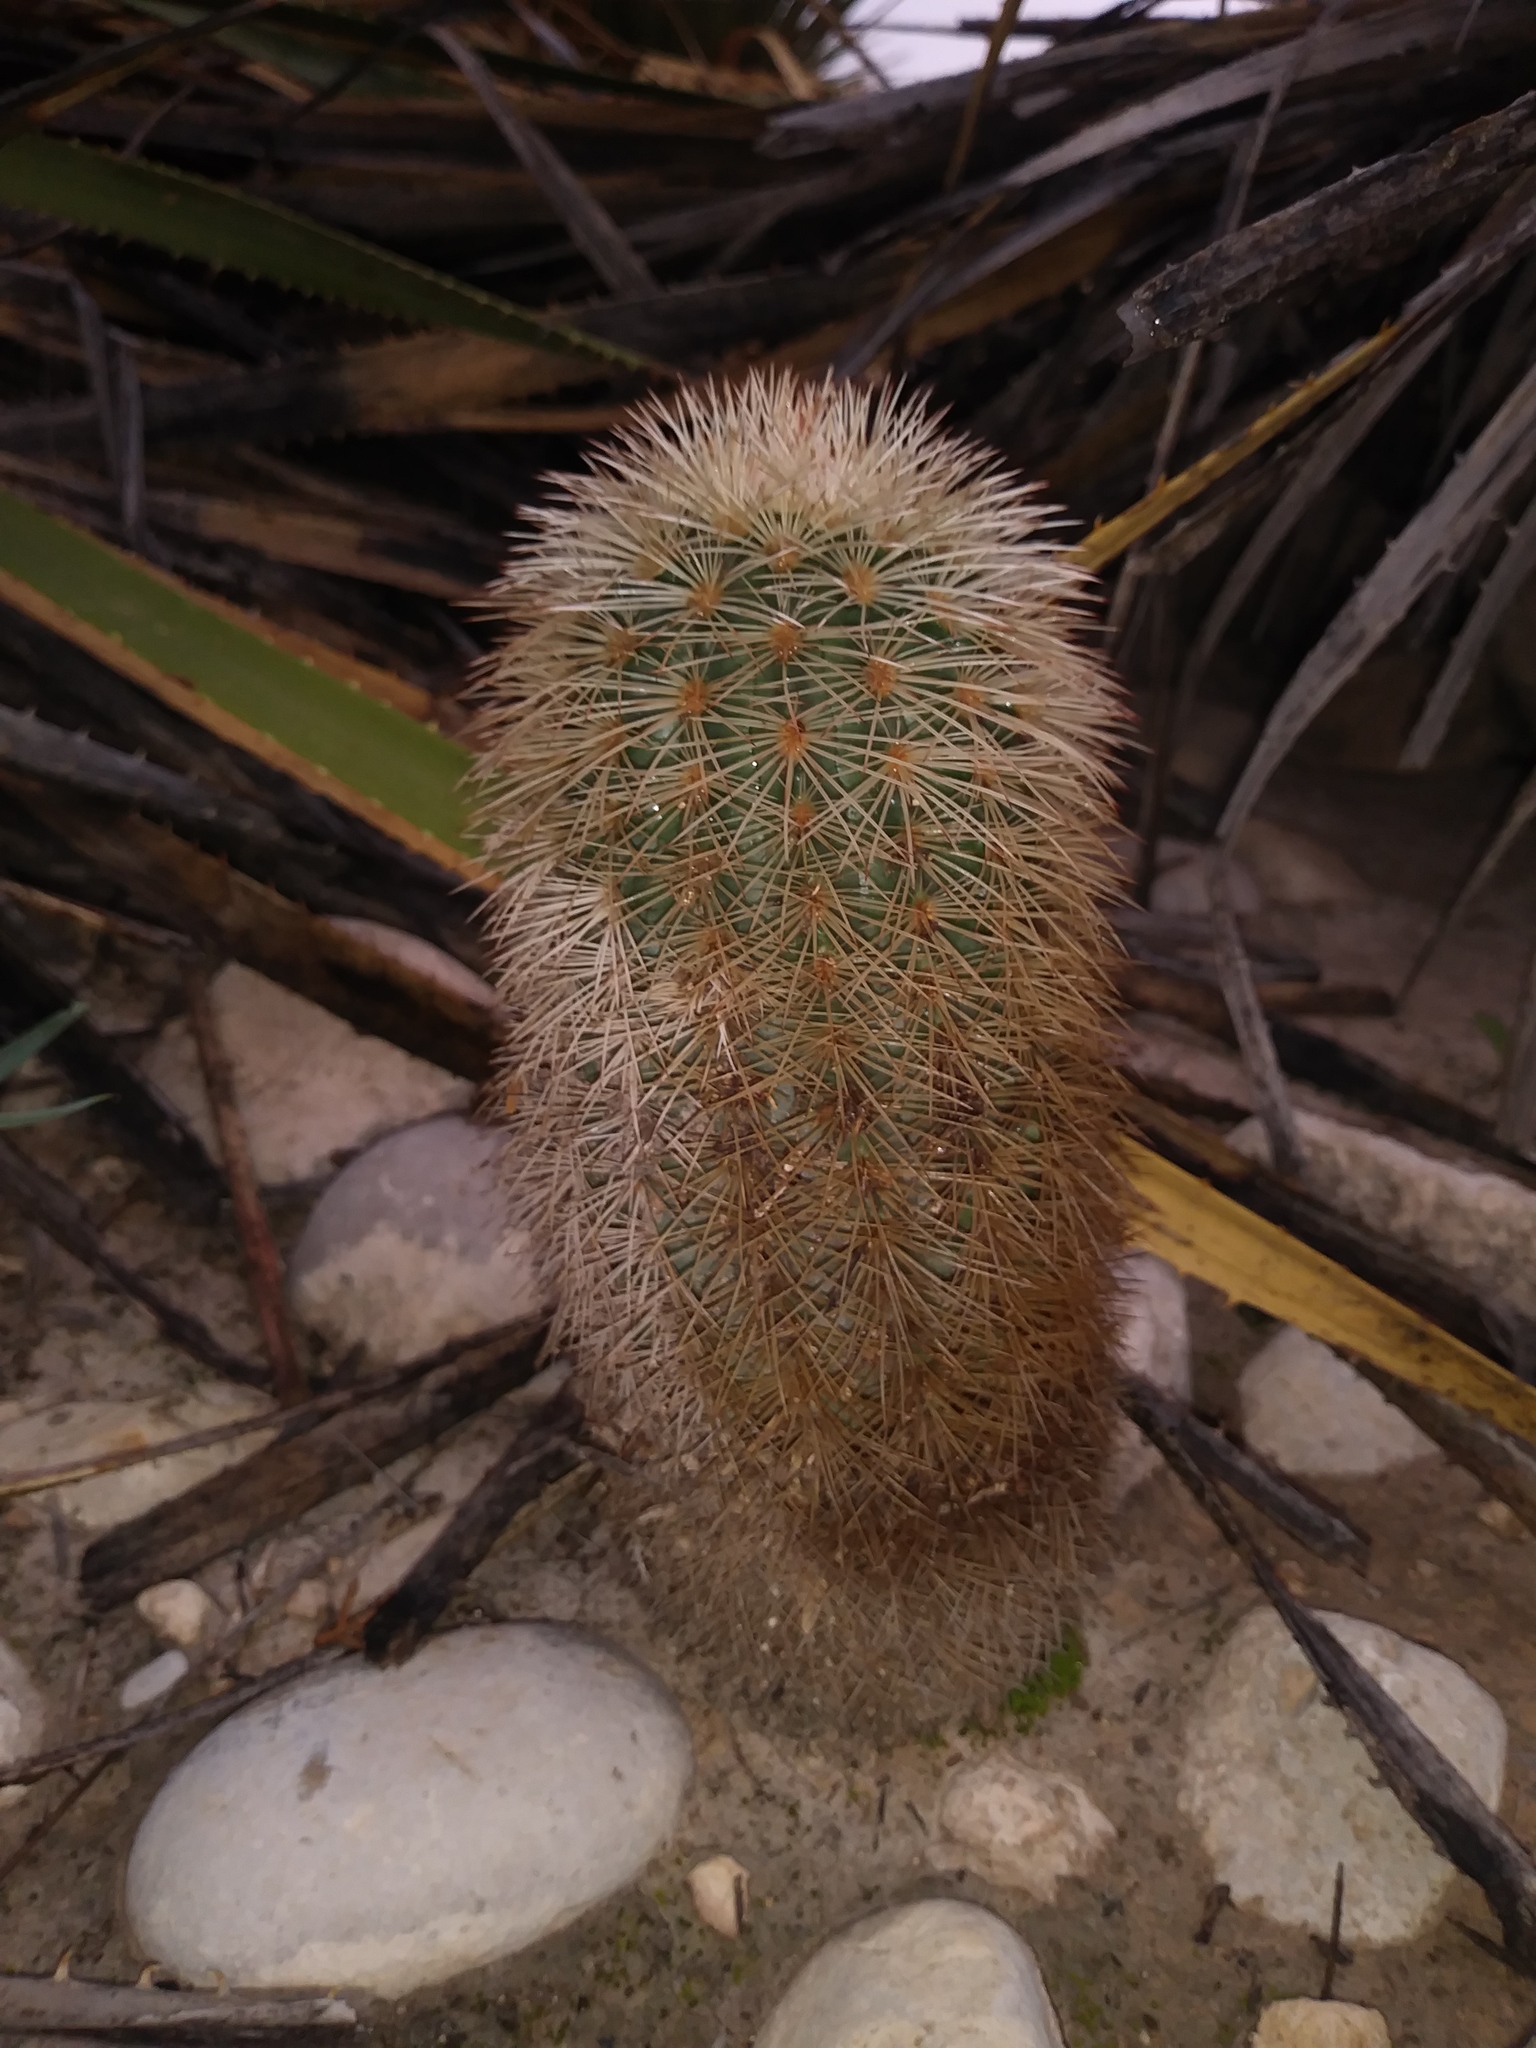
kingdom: Plantae
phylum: Tracheophyta
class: Magnoliopsida
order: Caryophyllales
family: Cactaceae
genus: Echinocereus
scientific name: Echinocereus dasyacanthus
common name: Spiny hedgehog cactus
